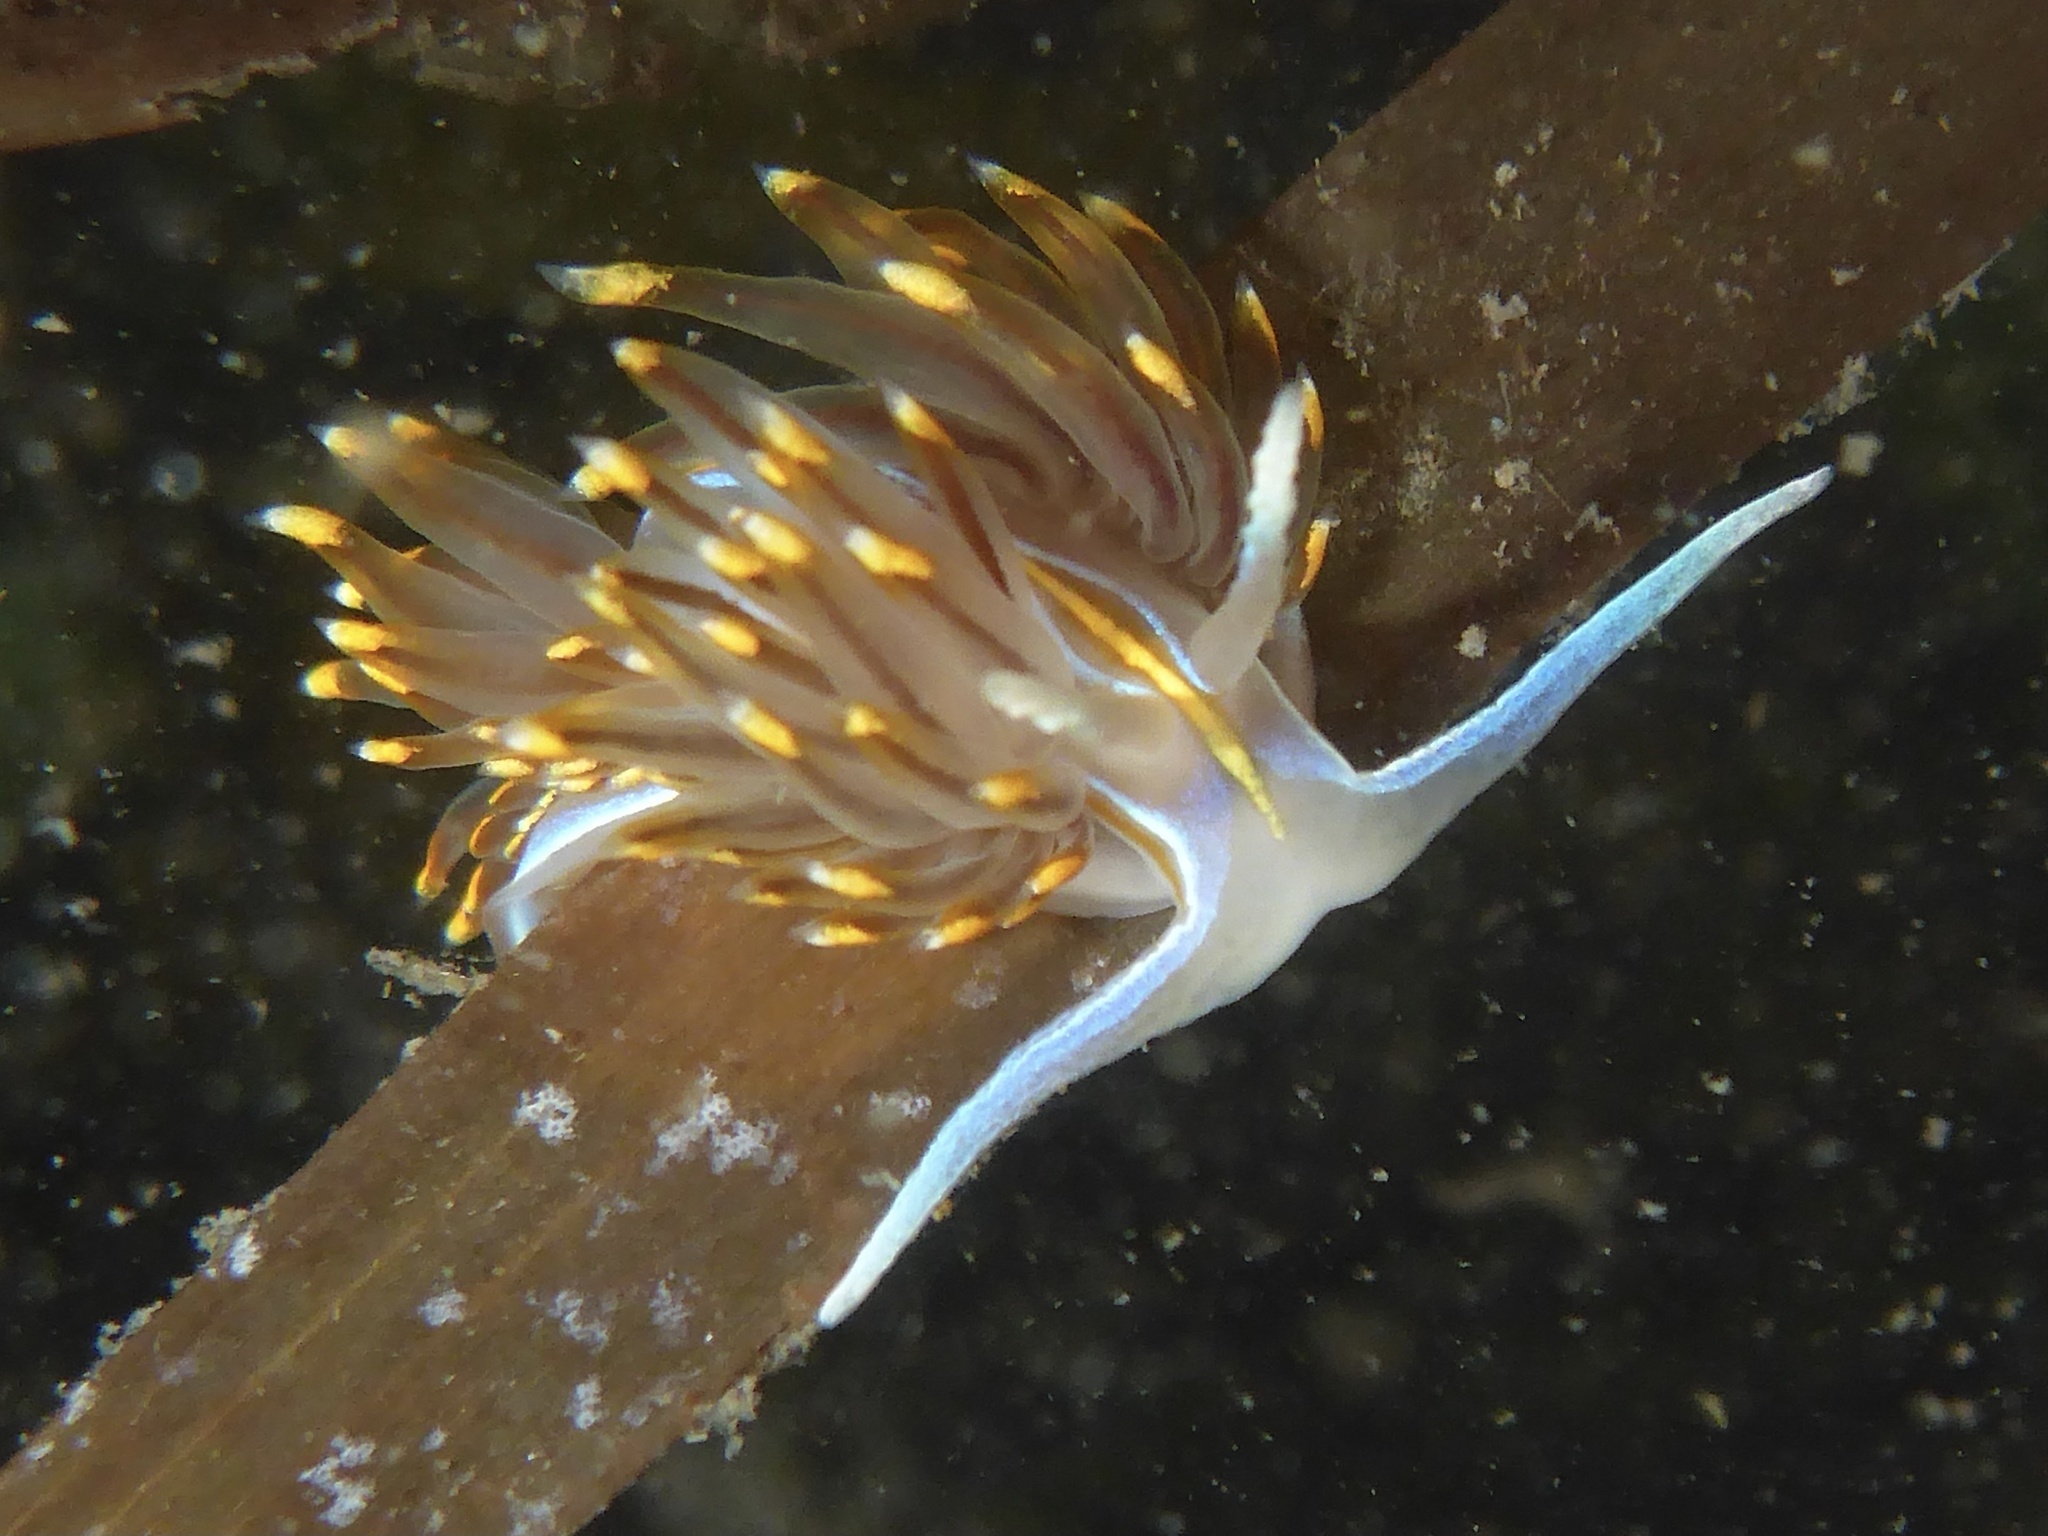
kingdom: Animalia
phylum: Mollusca
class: Gastropoda
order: Nudibranchia
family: Myrrhinidae
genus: Hermissenda
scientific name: Hermissenda opalescens
